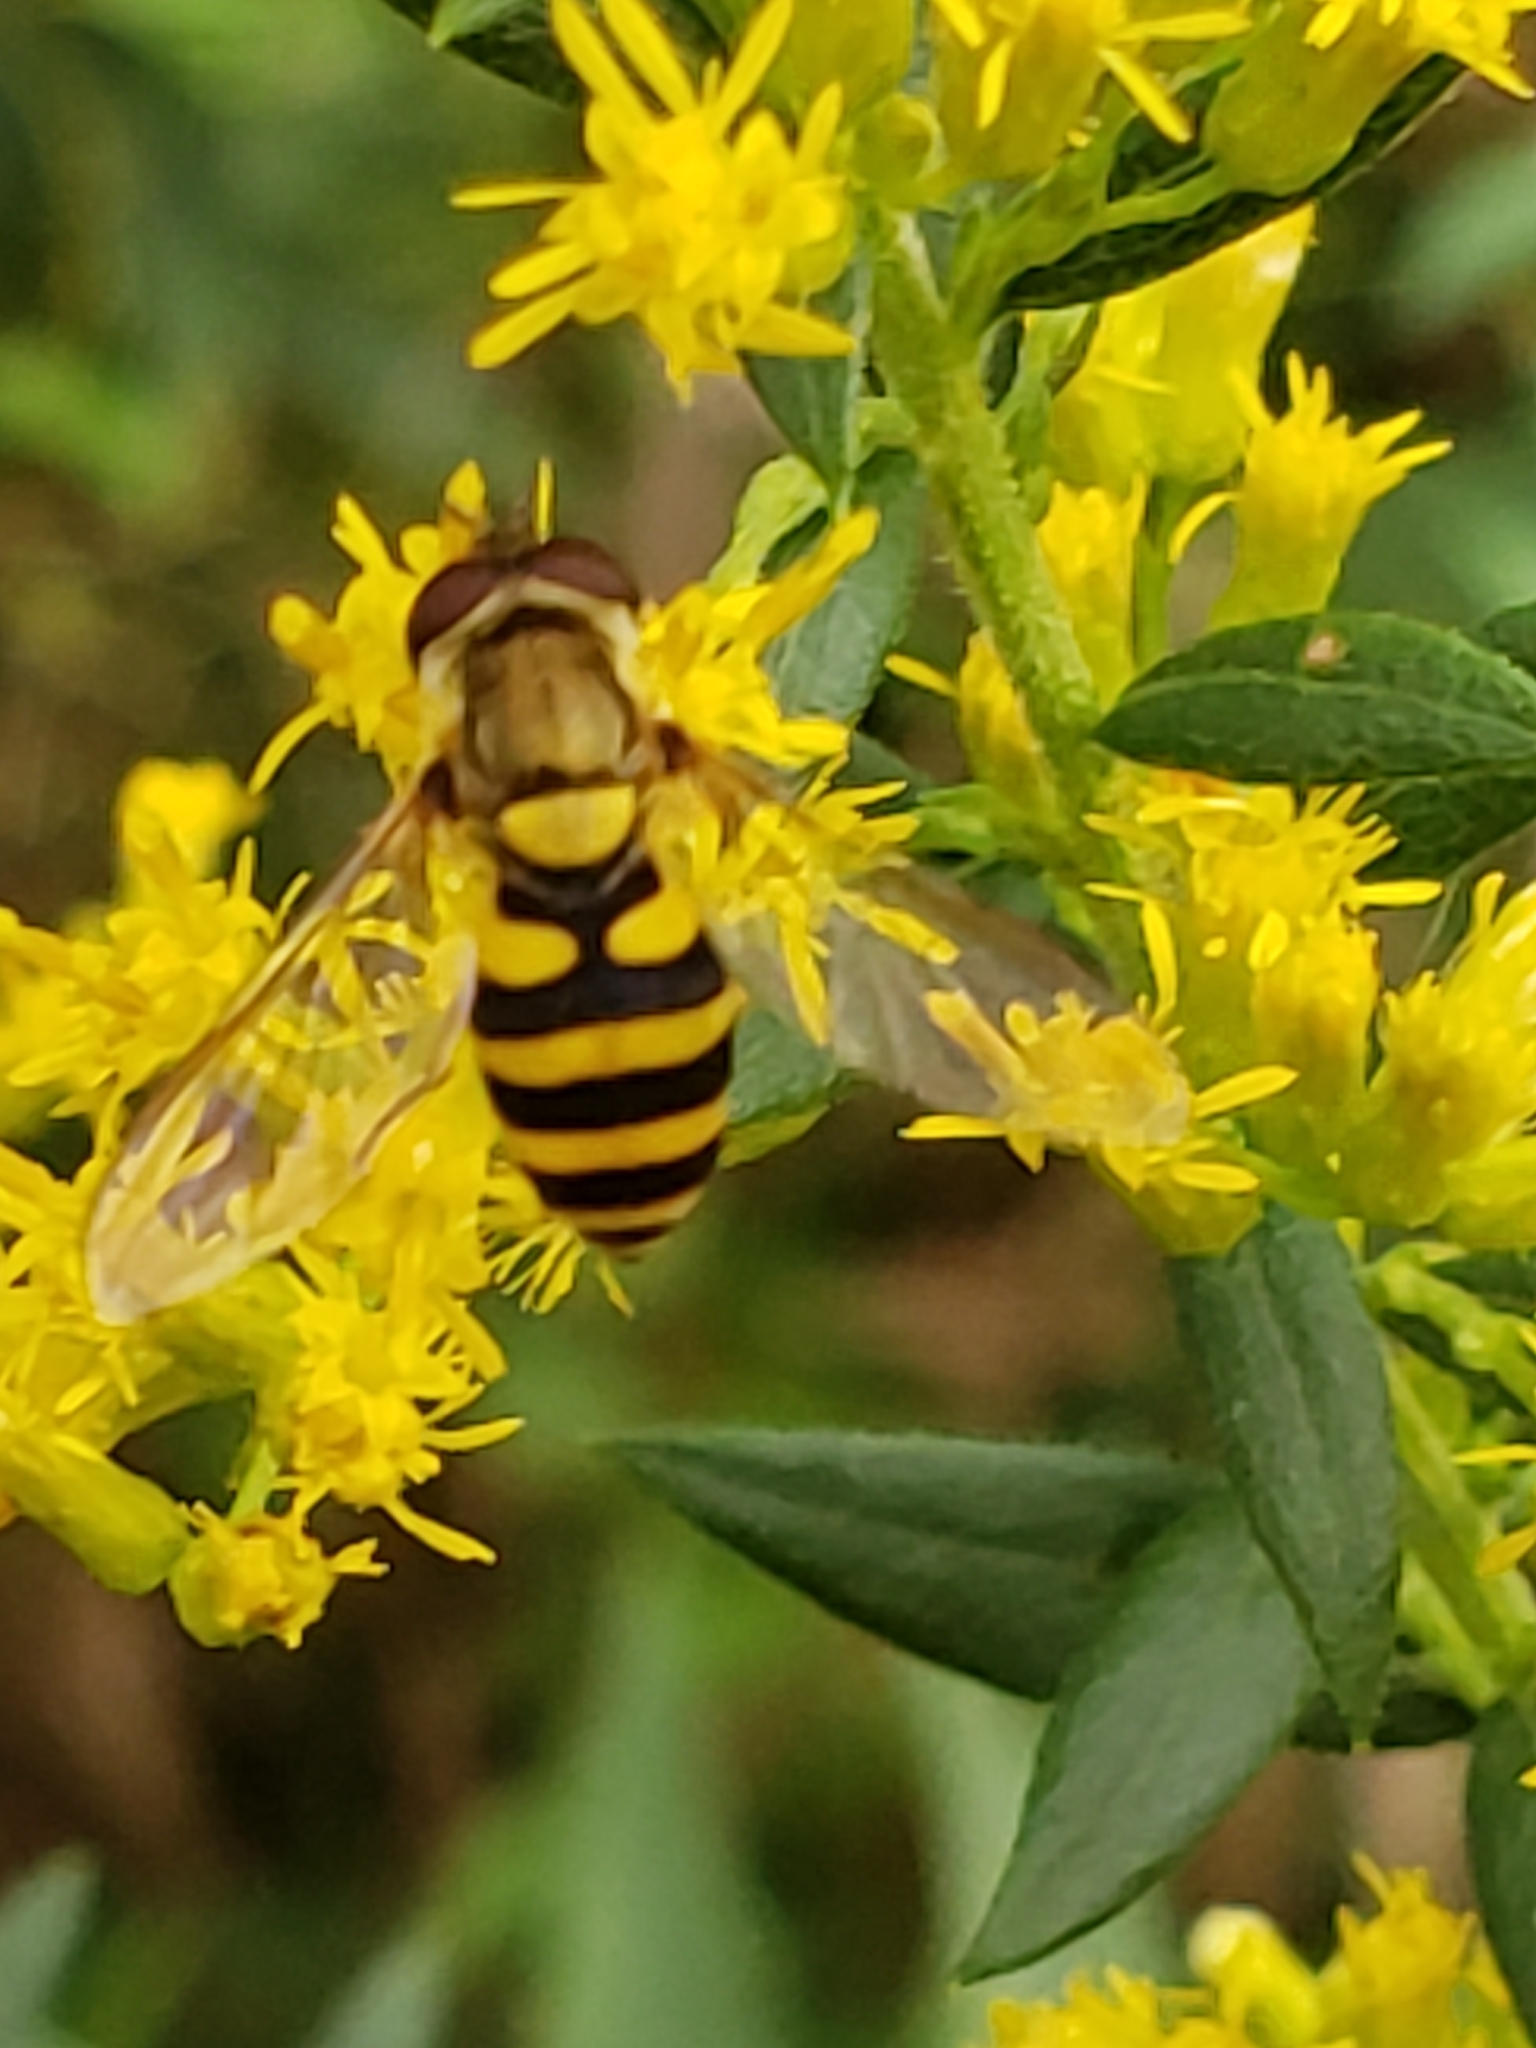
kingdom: Animalia
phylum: Arthropoda
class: Insecta
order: Diptera
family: Syrphidae
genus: Syrphus
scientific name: Syrphus
